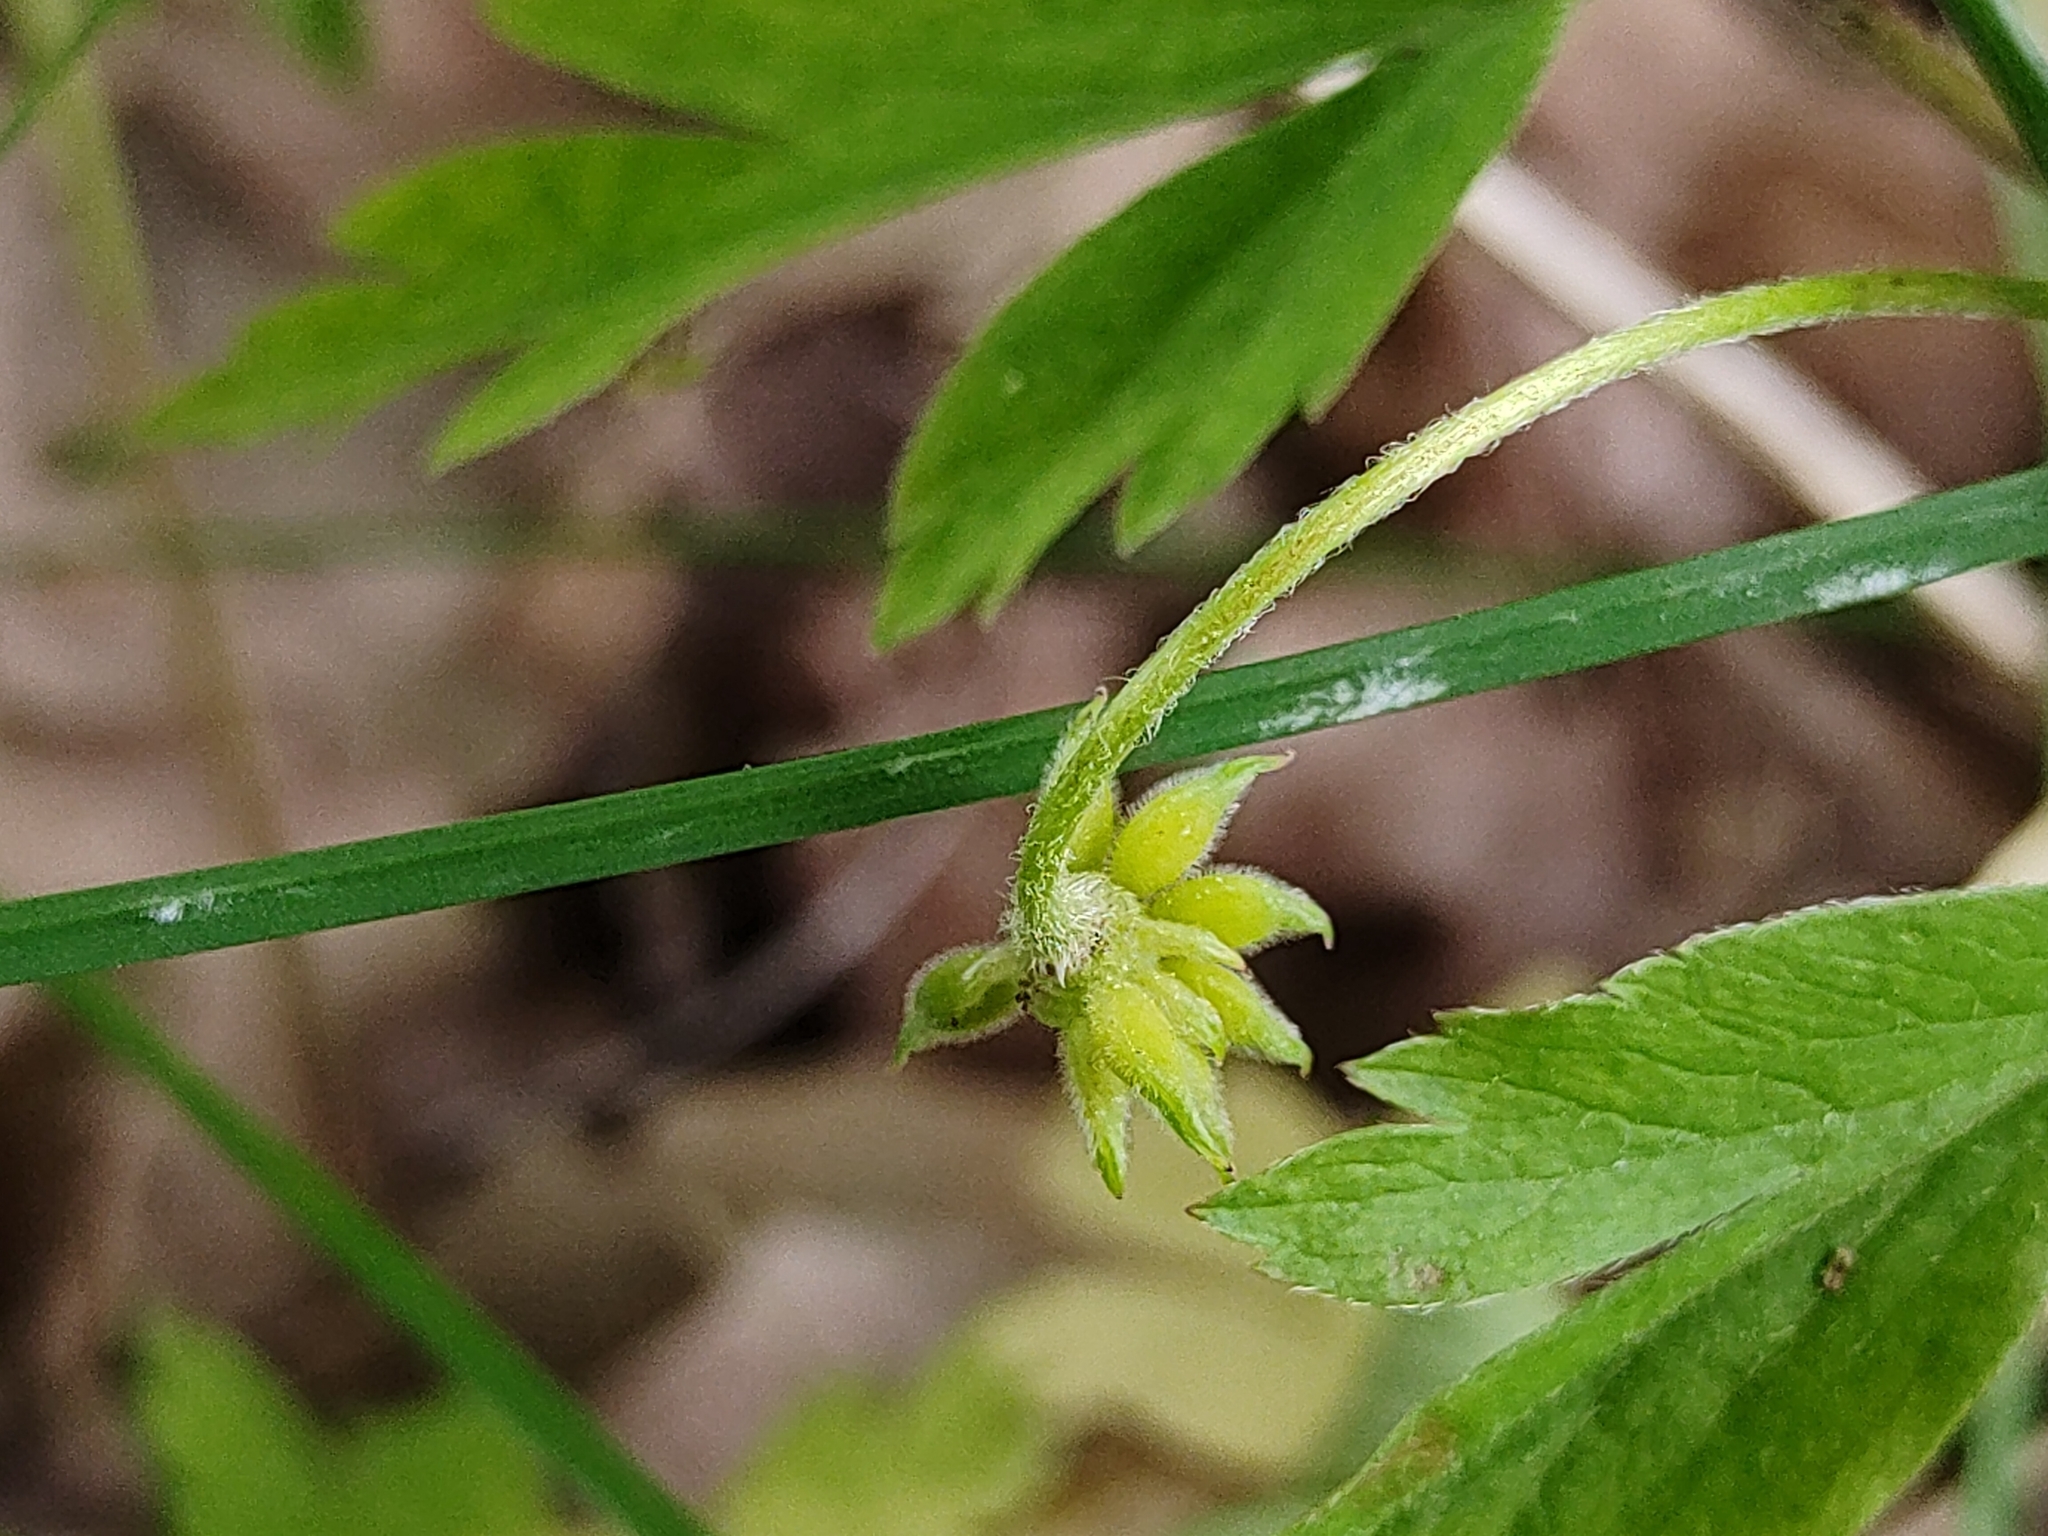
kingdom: Plantae
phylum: Tracheophyta
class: Magnoliopsida
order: Ranunculales
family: Ranunculaceae
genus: Anemone
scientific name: Anemone nemorosa
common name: Wood anemone
